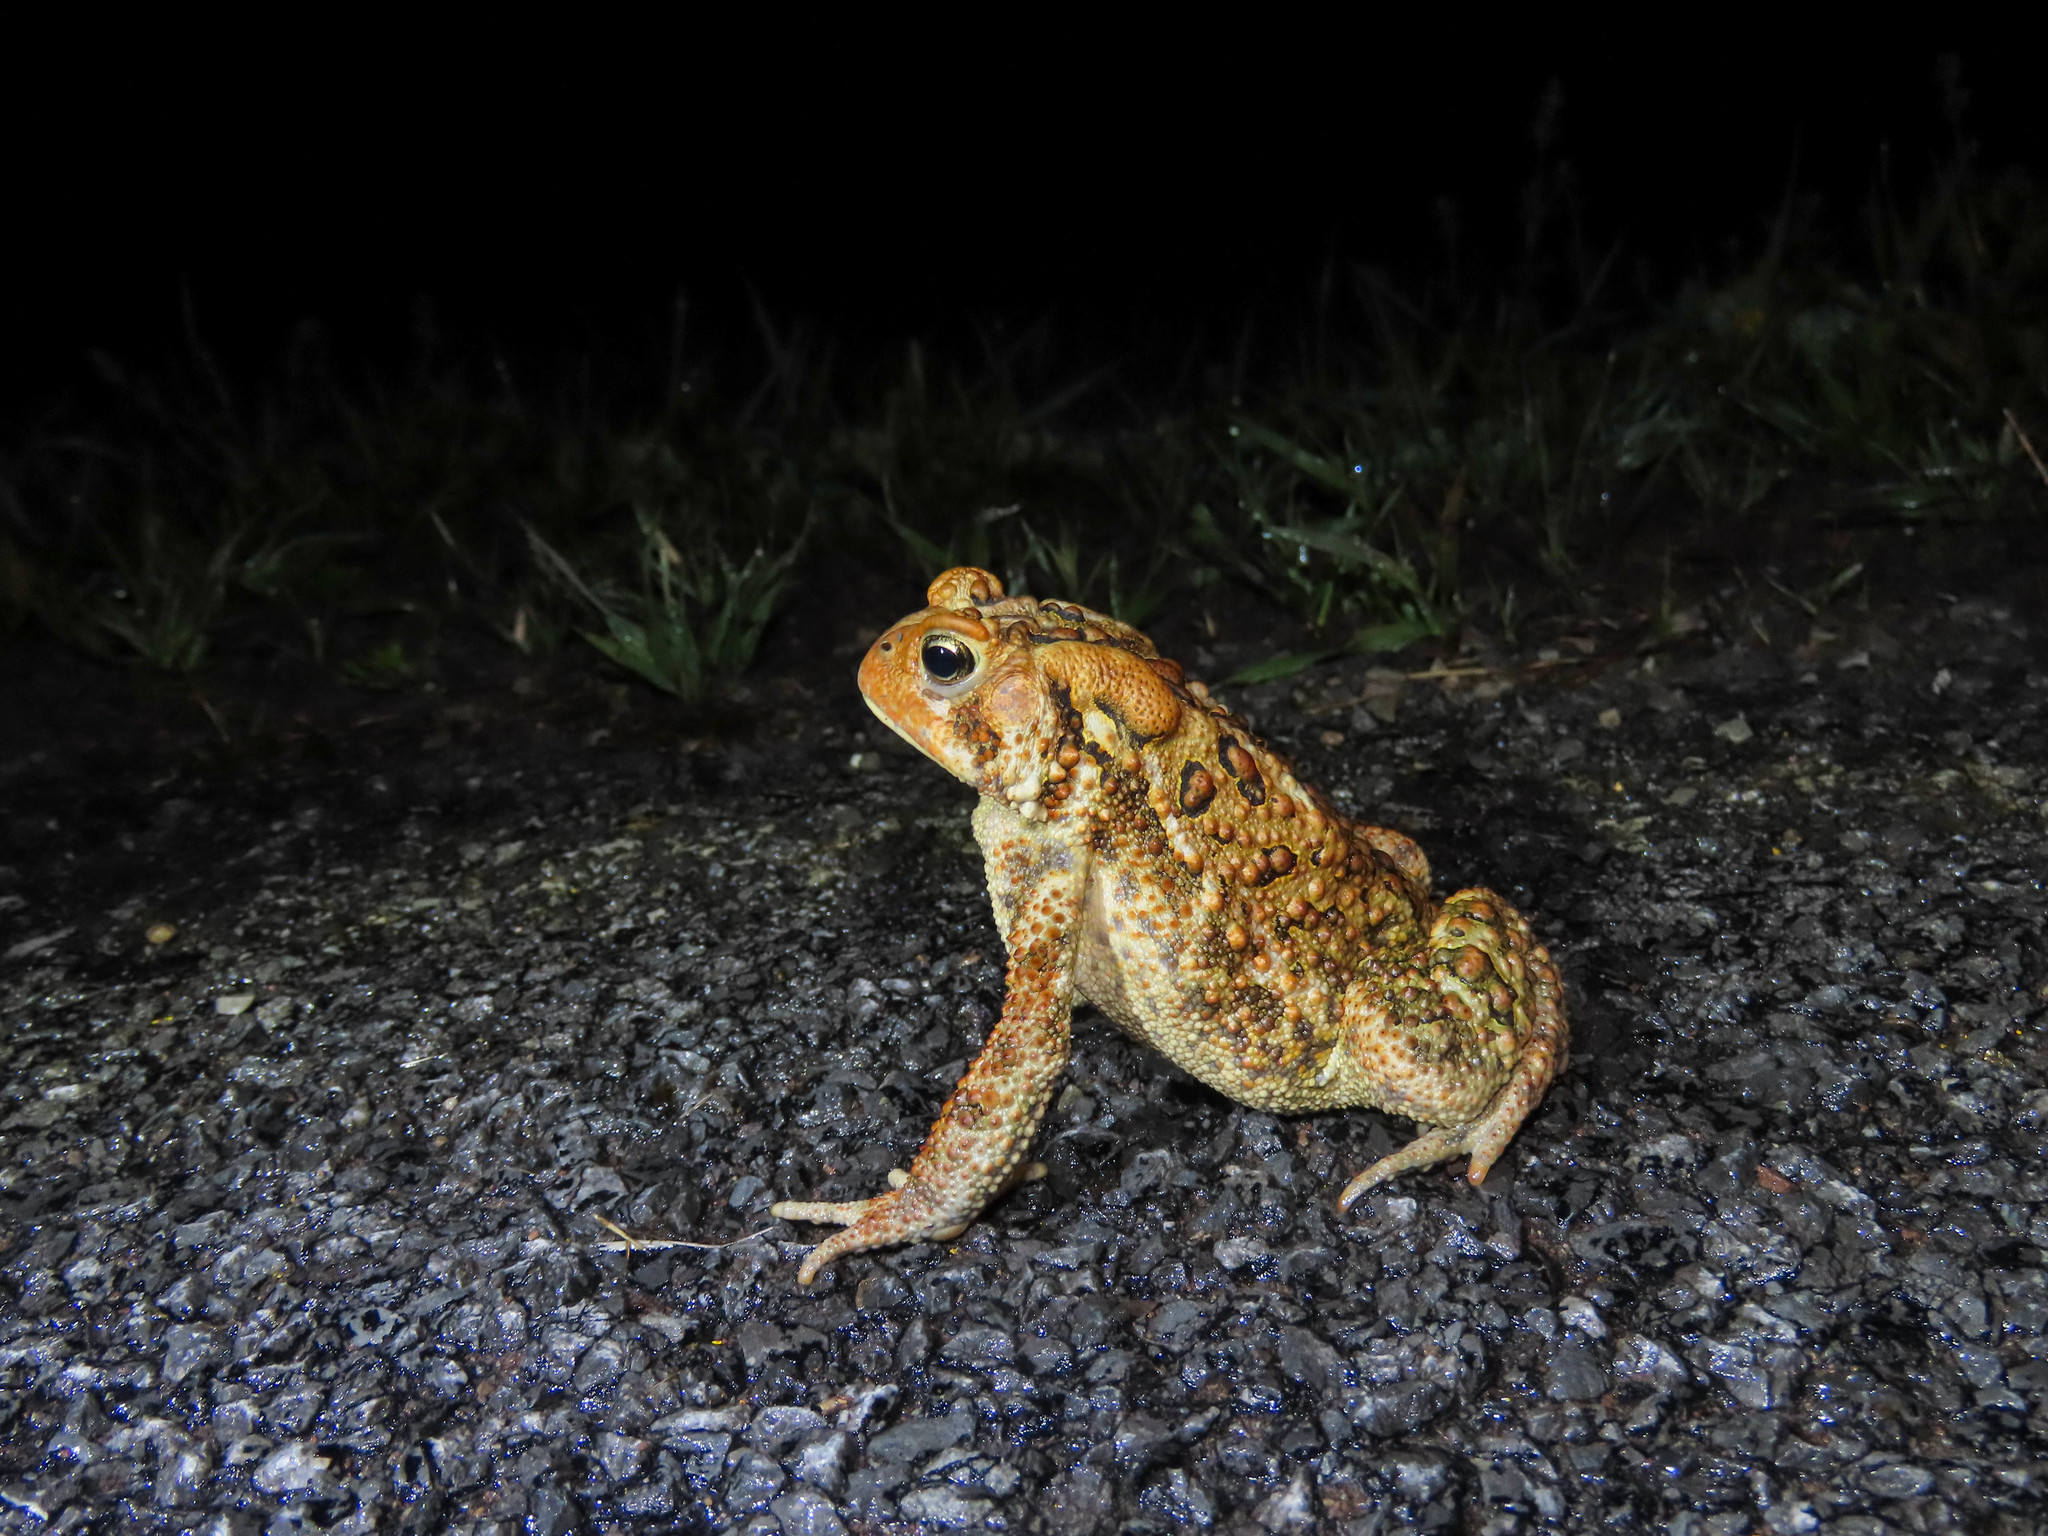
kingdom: Animalia
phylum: Chordata
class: Amphibia
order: Anura
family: Bufonidae
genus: Anaxyrus
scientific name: Anaxyrus americanus
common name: American toad
